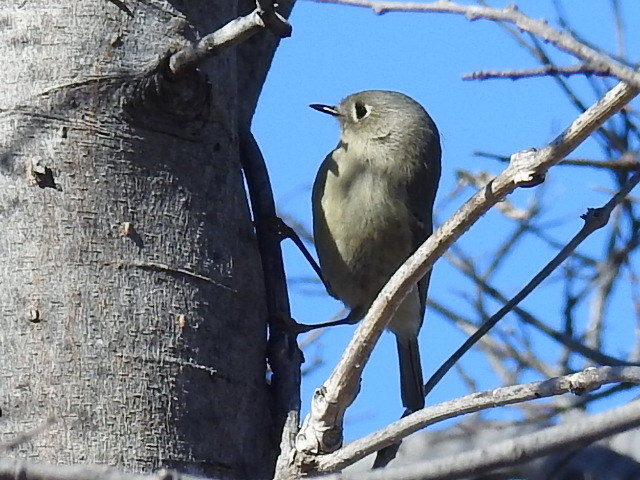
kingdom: Animalia
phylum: Chordata
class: Aves
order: Passeriformes
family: Regulidae
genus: Regulus
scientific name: Regulus calendula
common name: Ruby-crowned kinglet
